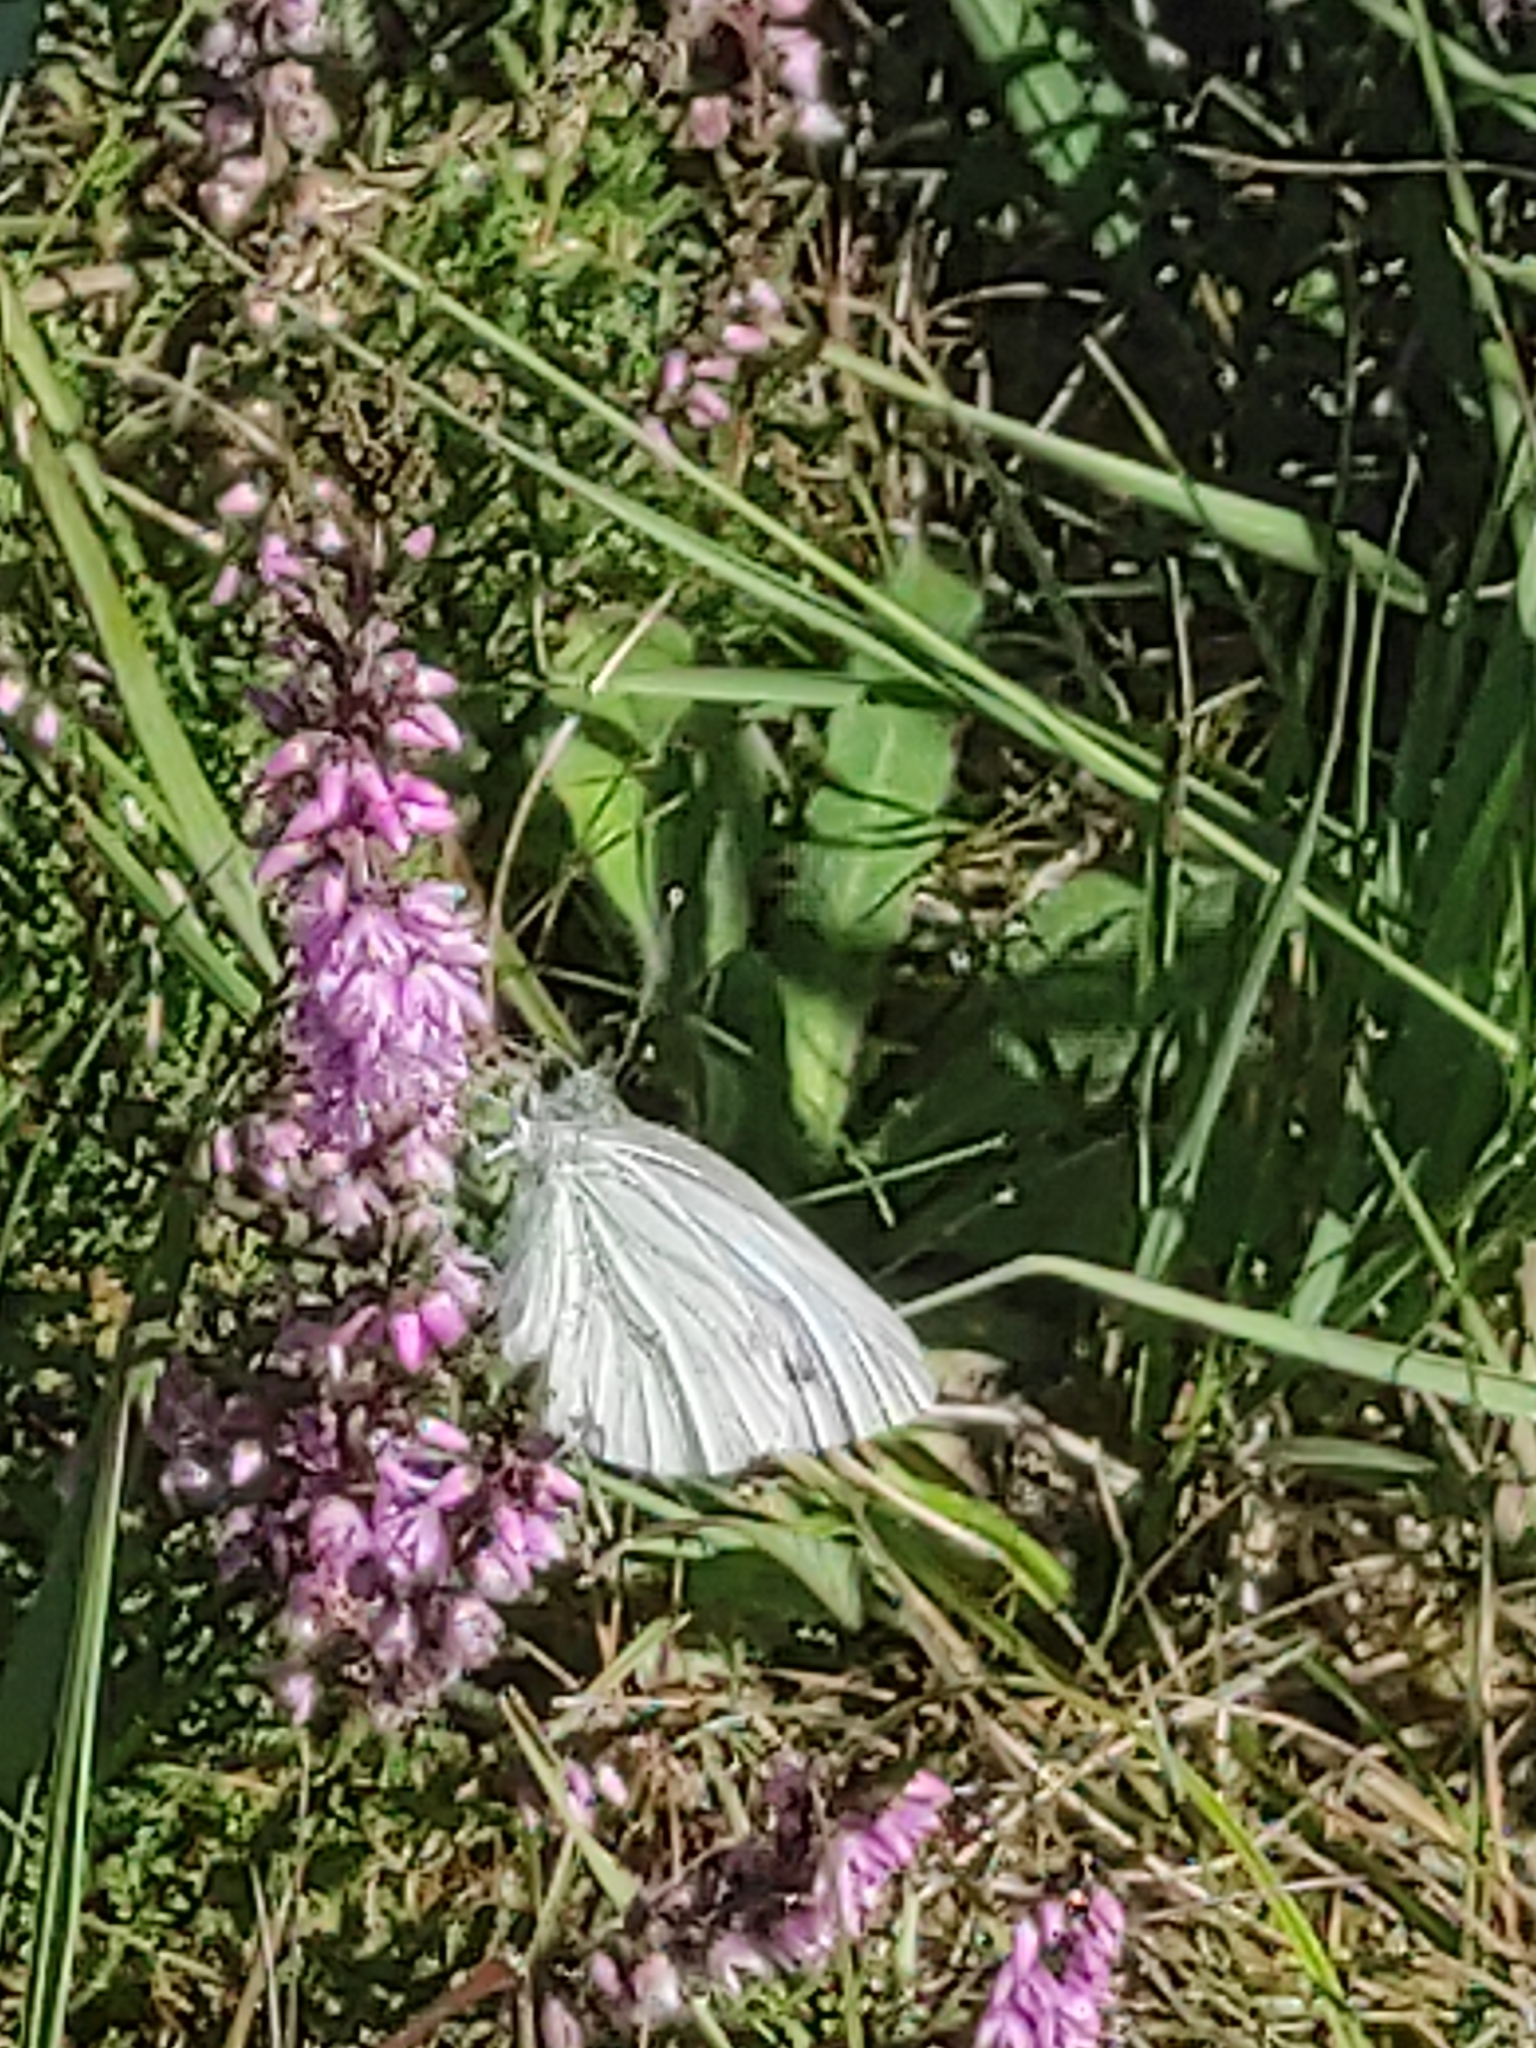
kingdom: Animalia
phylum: Arthropoda
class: Insecta
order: Lepidoptera
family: Pieridae
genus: Pieris
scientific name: Pieris napi
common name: Green-veined white
